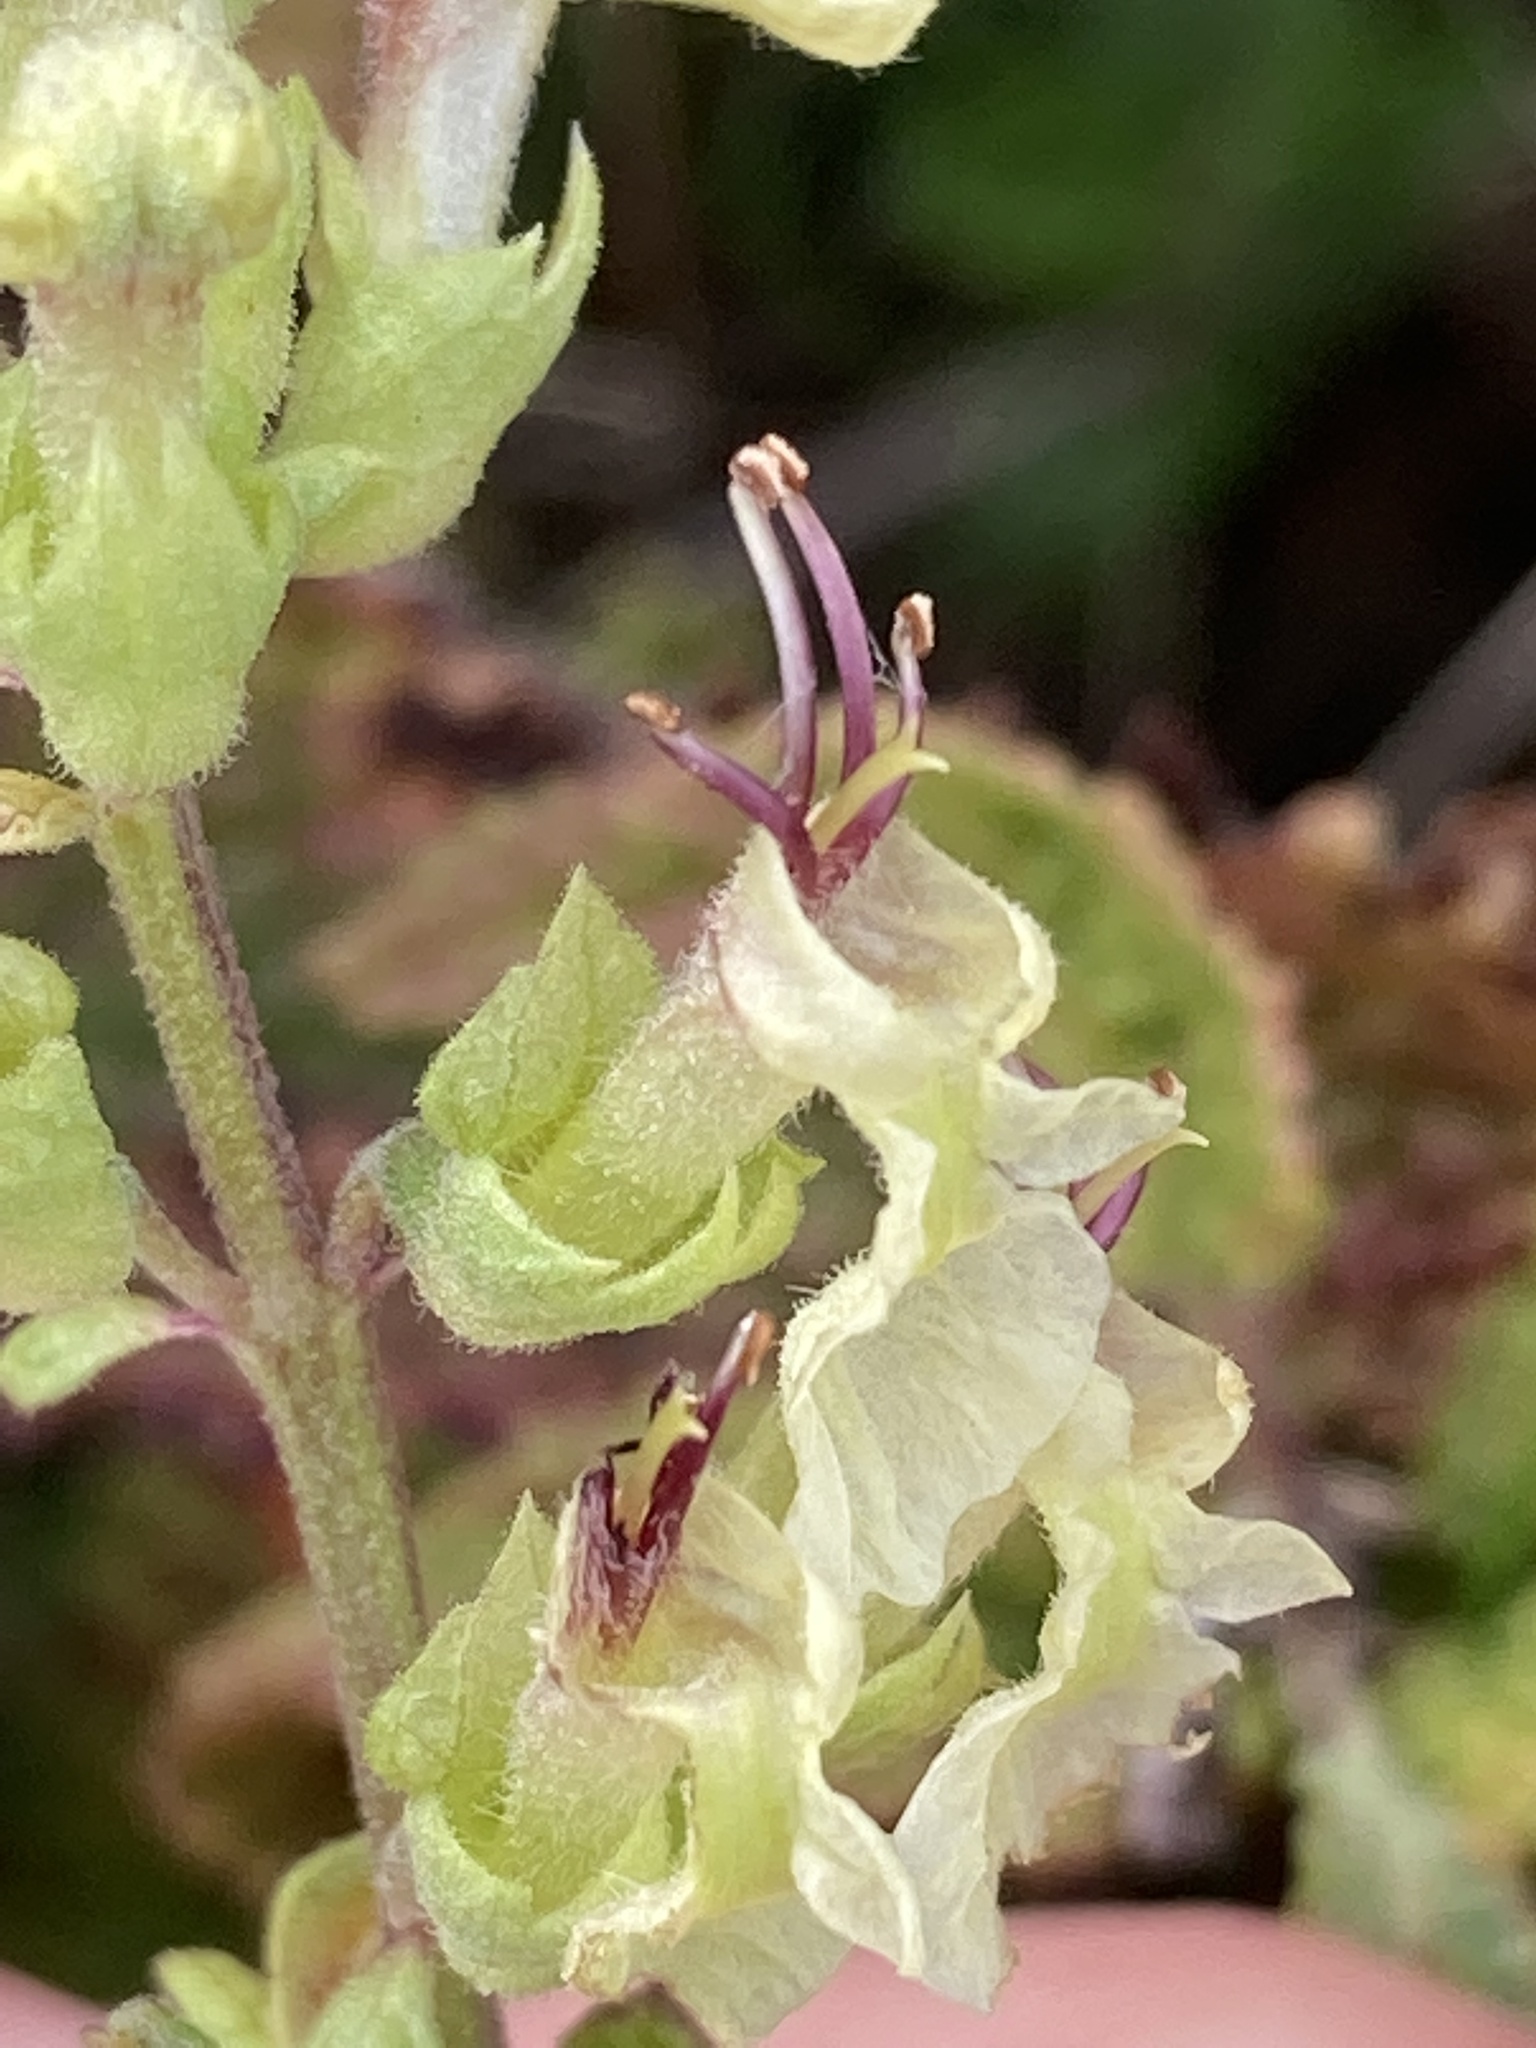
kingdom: Plantae
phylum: Tracheophyta
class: Magnoliopsida
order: Lamiales
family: Lamiaceae
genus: Teucrium
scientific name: Teucrium scorodonia
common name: Woodland germander
